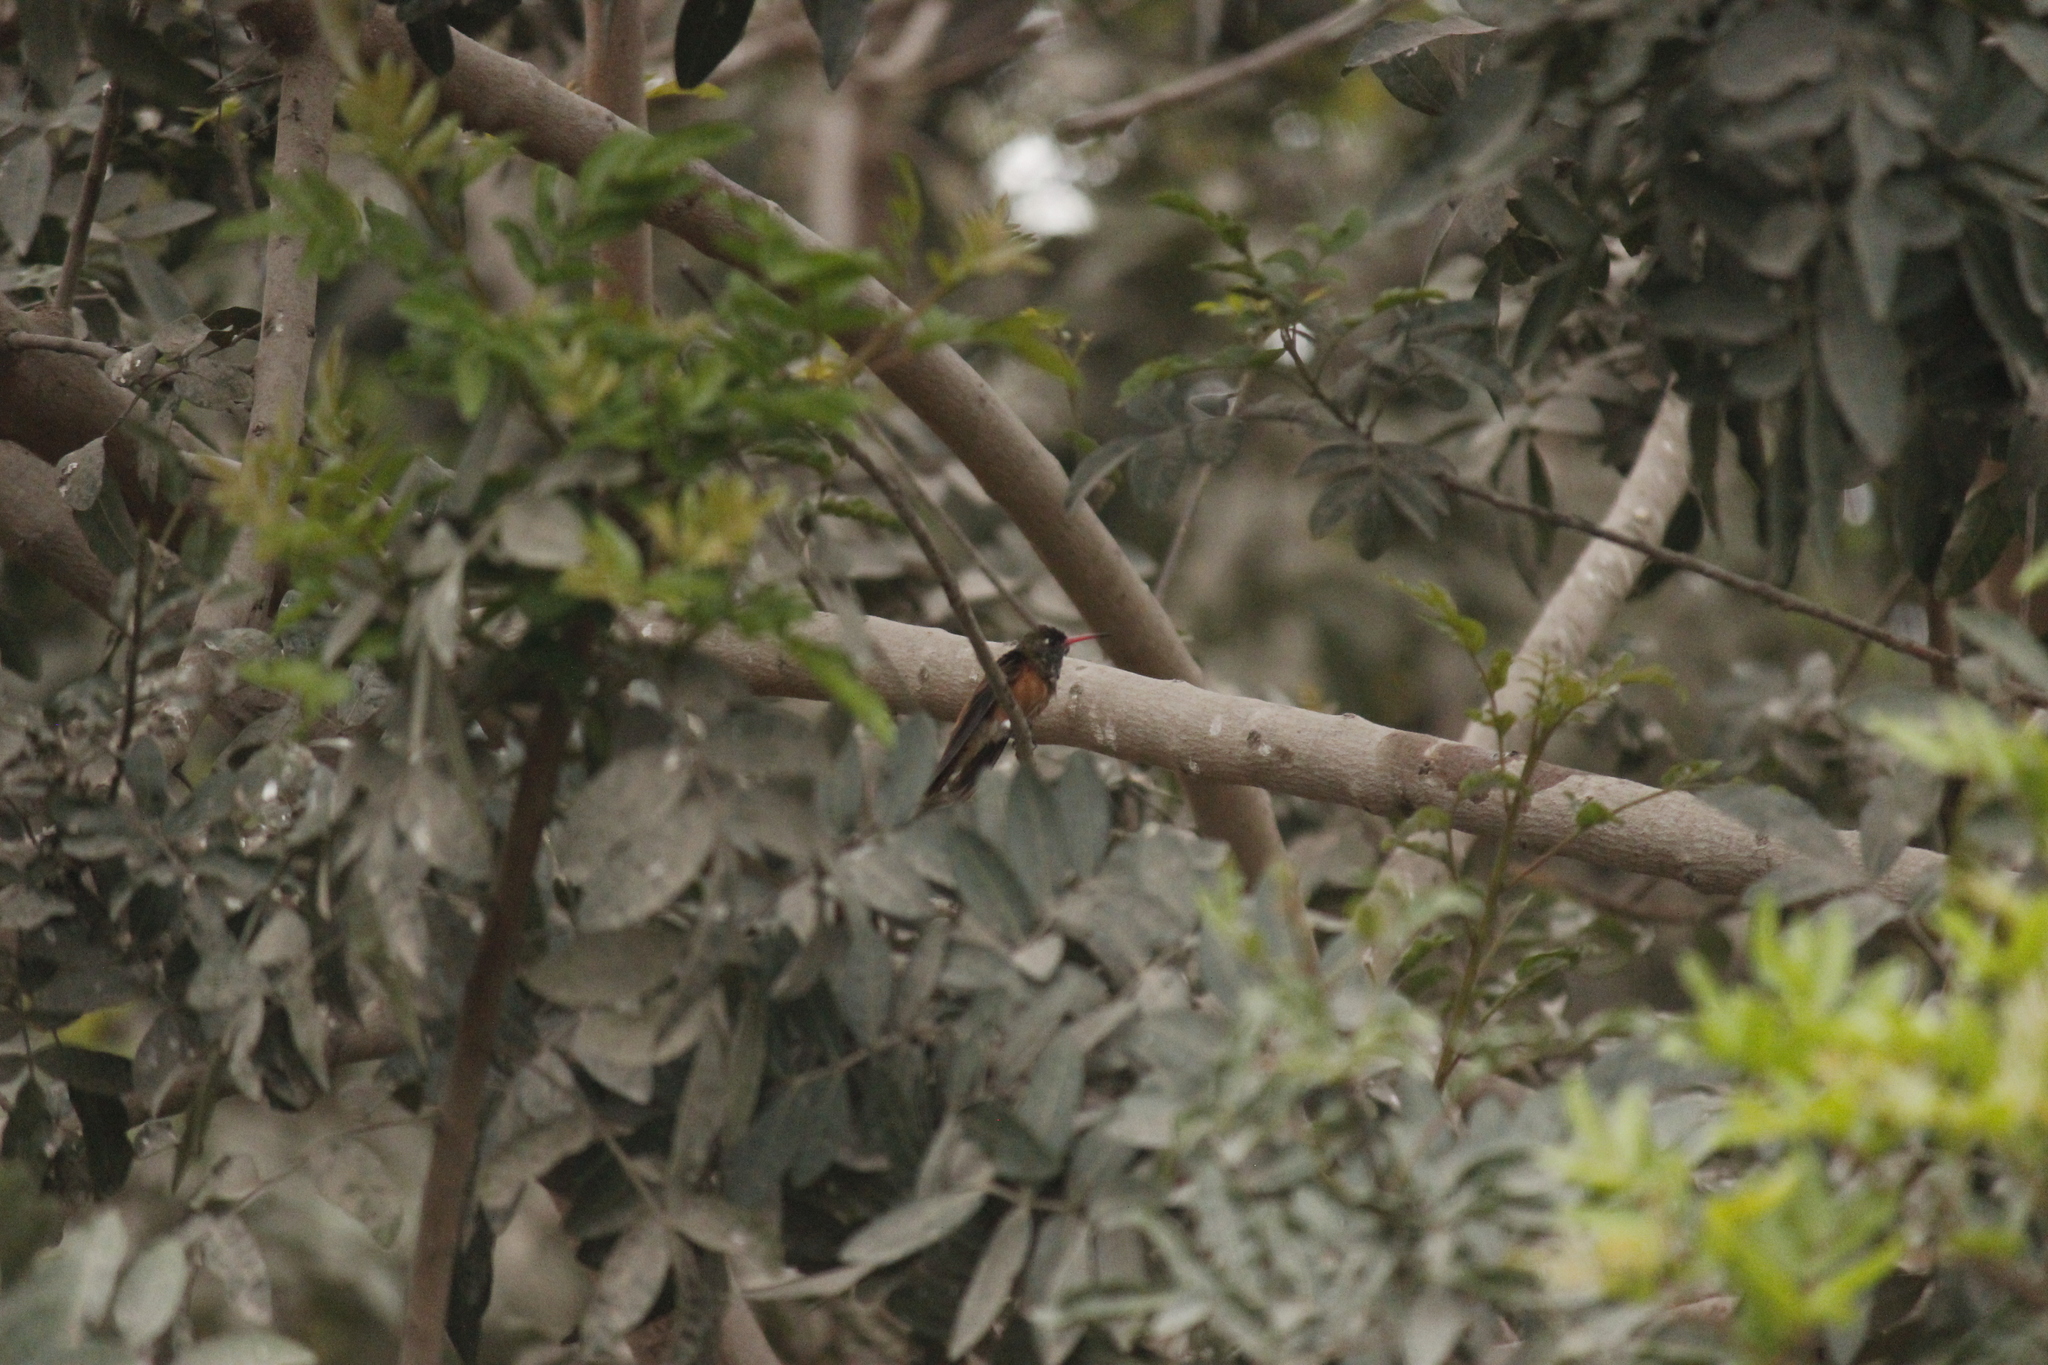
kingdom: Animalia
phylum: Chordata
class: Aves
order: Apodiformes
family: Trochilidae
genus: Amazilis
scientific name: Amazilis amazilia
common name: Amazilia hummingbird
